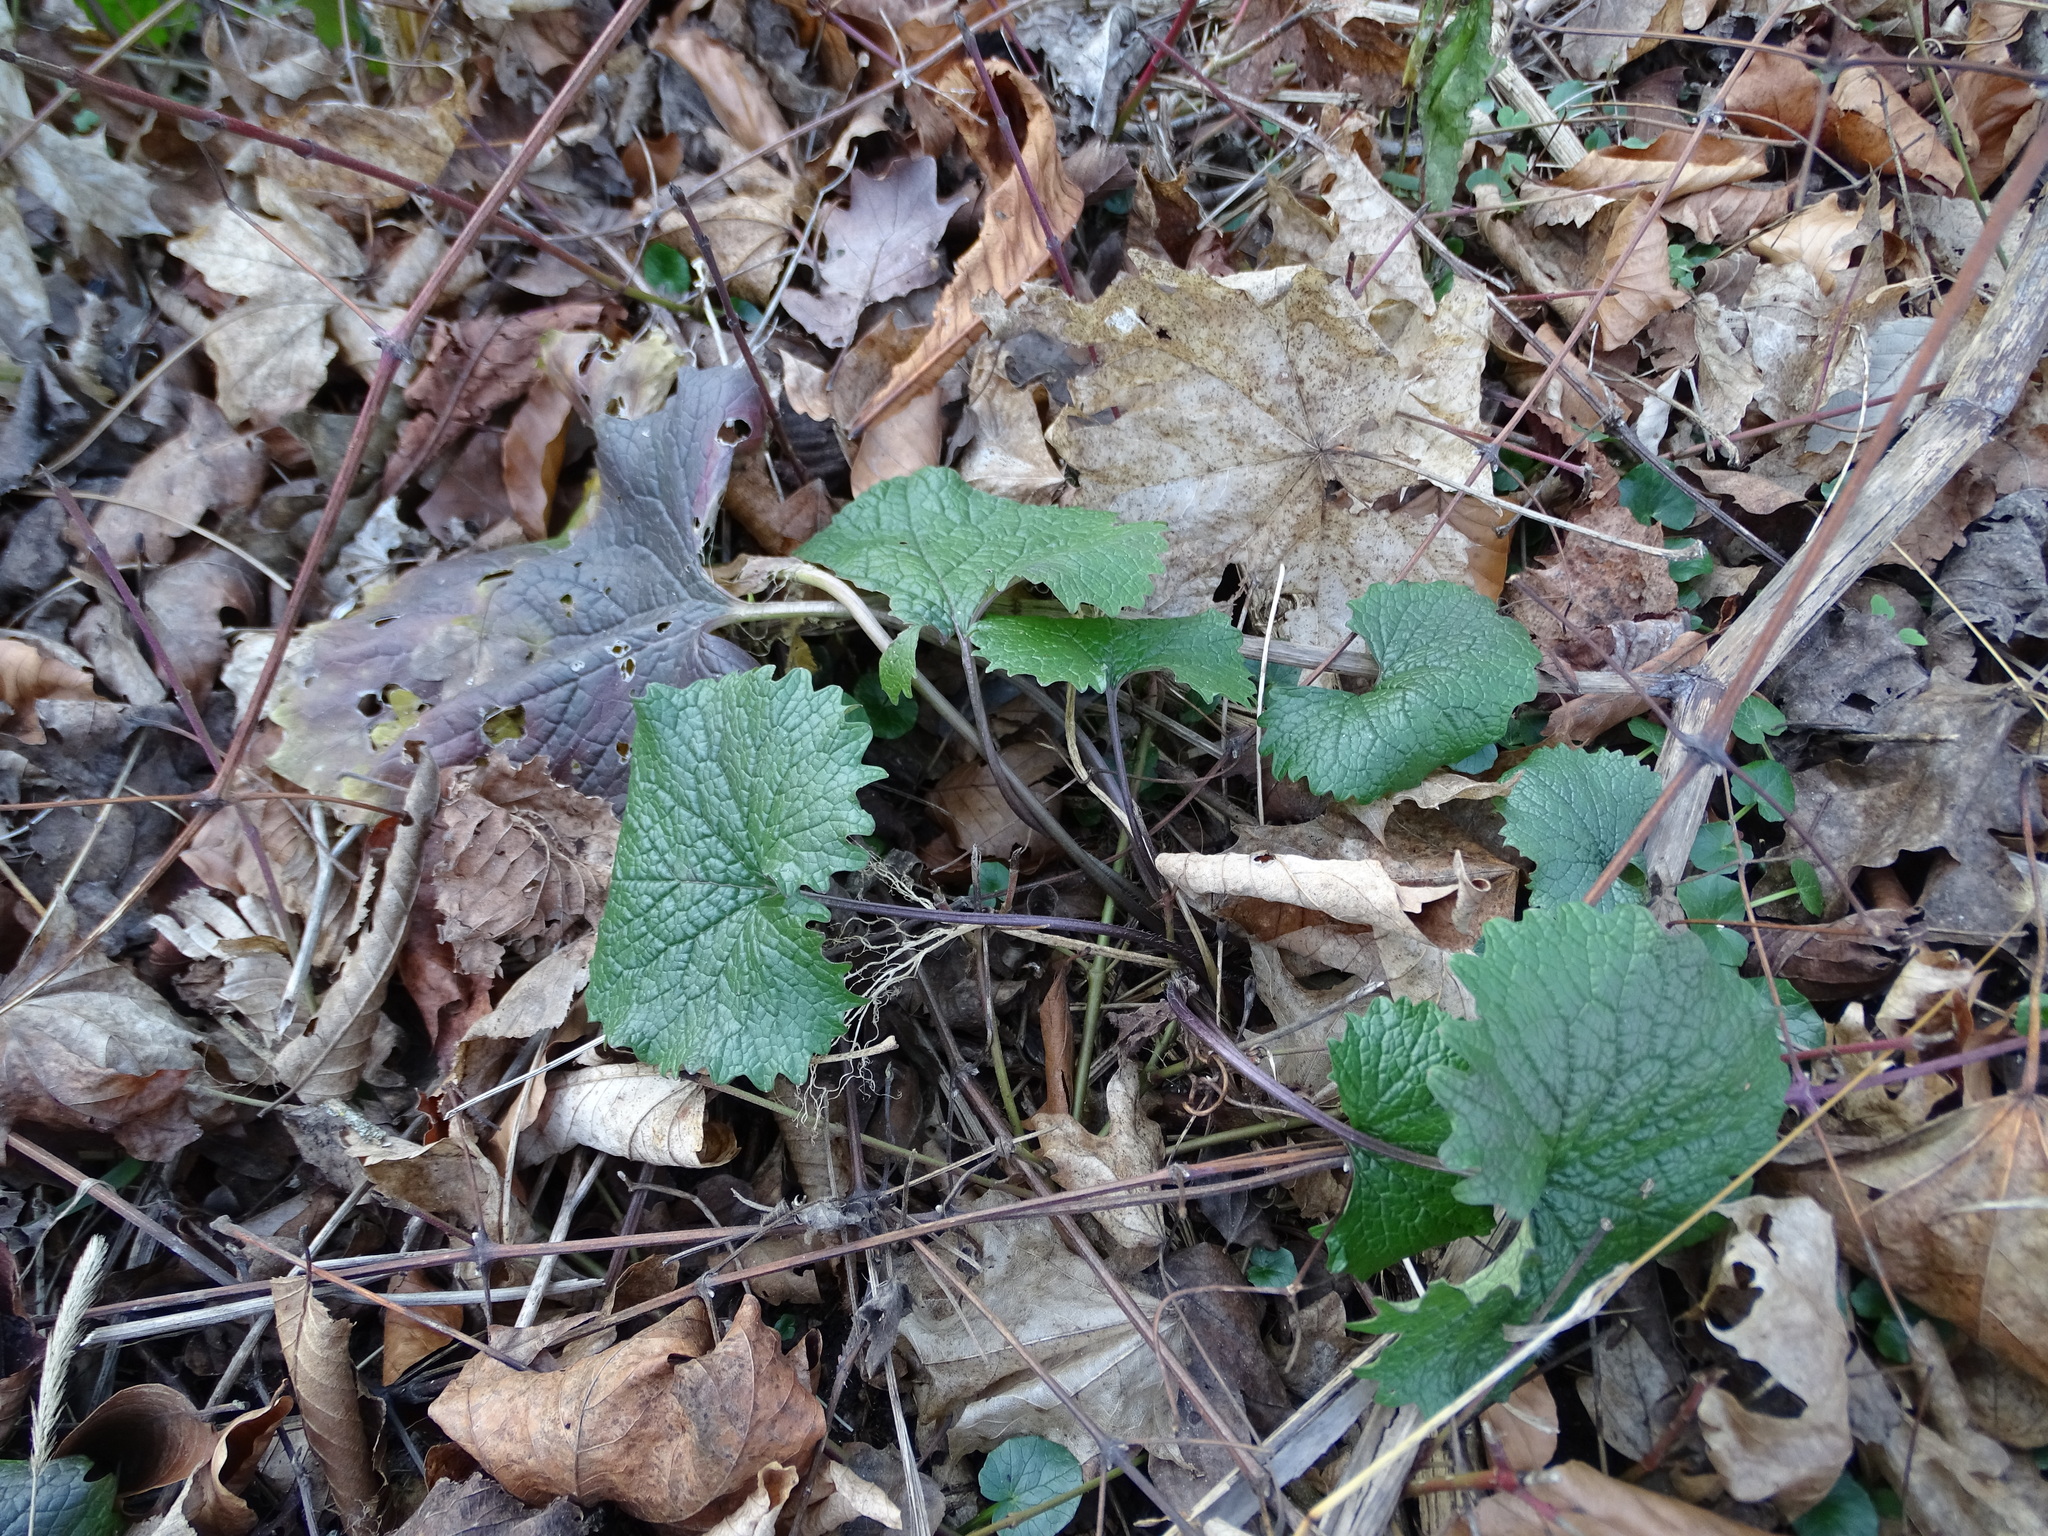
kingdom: Plantae
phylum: Tracheophyta
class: Magnoliopsida
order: Brassicales
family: Brassicaceae
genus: Alliaria
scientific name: Alliaria petiolata
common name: Garlic mustard
